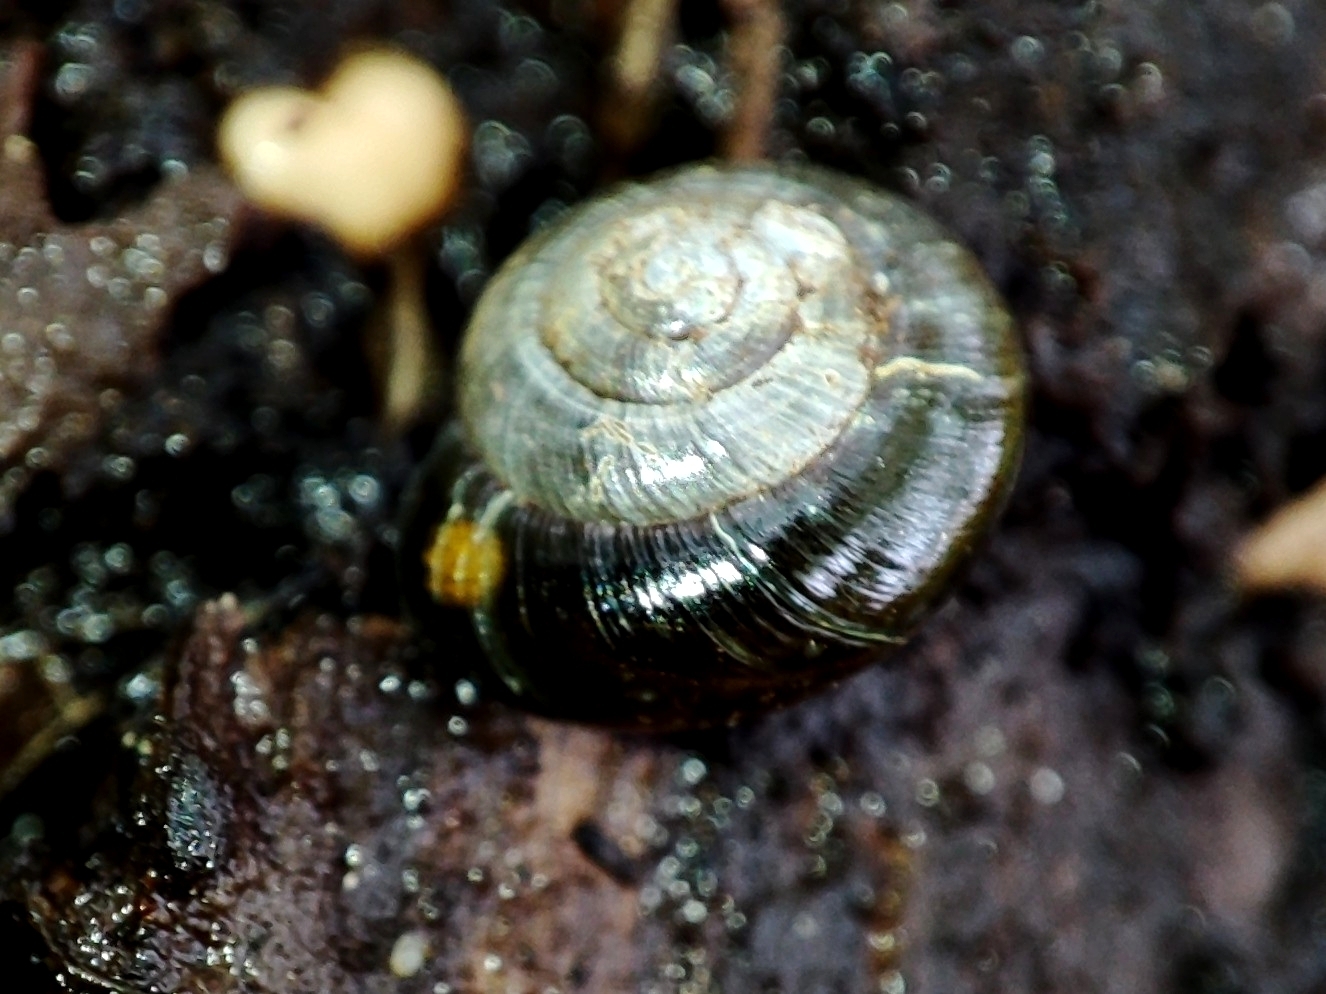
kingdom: Animalia
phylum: Mollusca
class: Gastropoda
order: Stylommatophora
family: Gastrodontidae
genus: Zonitoides
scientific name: Zonitoides nitidus
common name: Shiny glass snail
